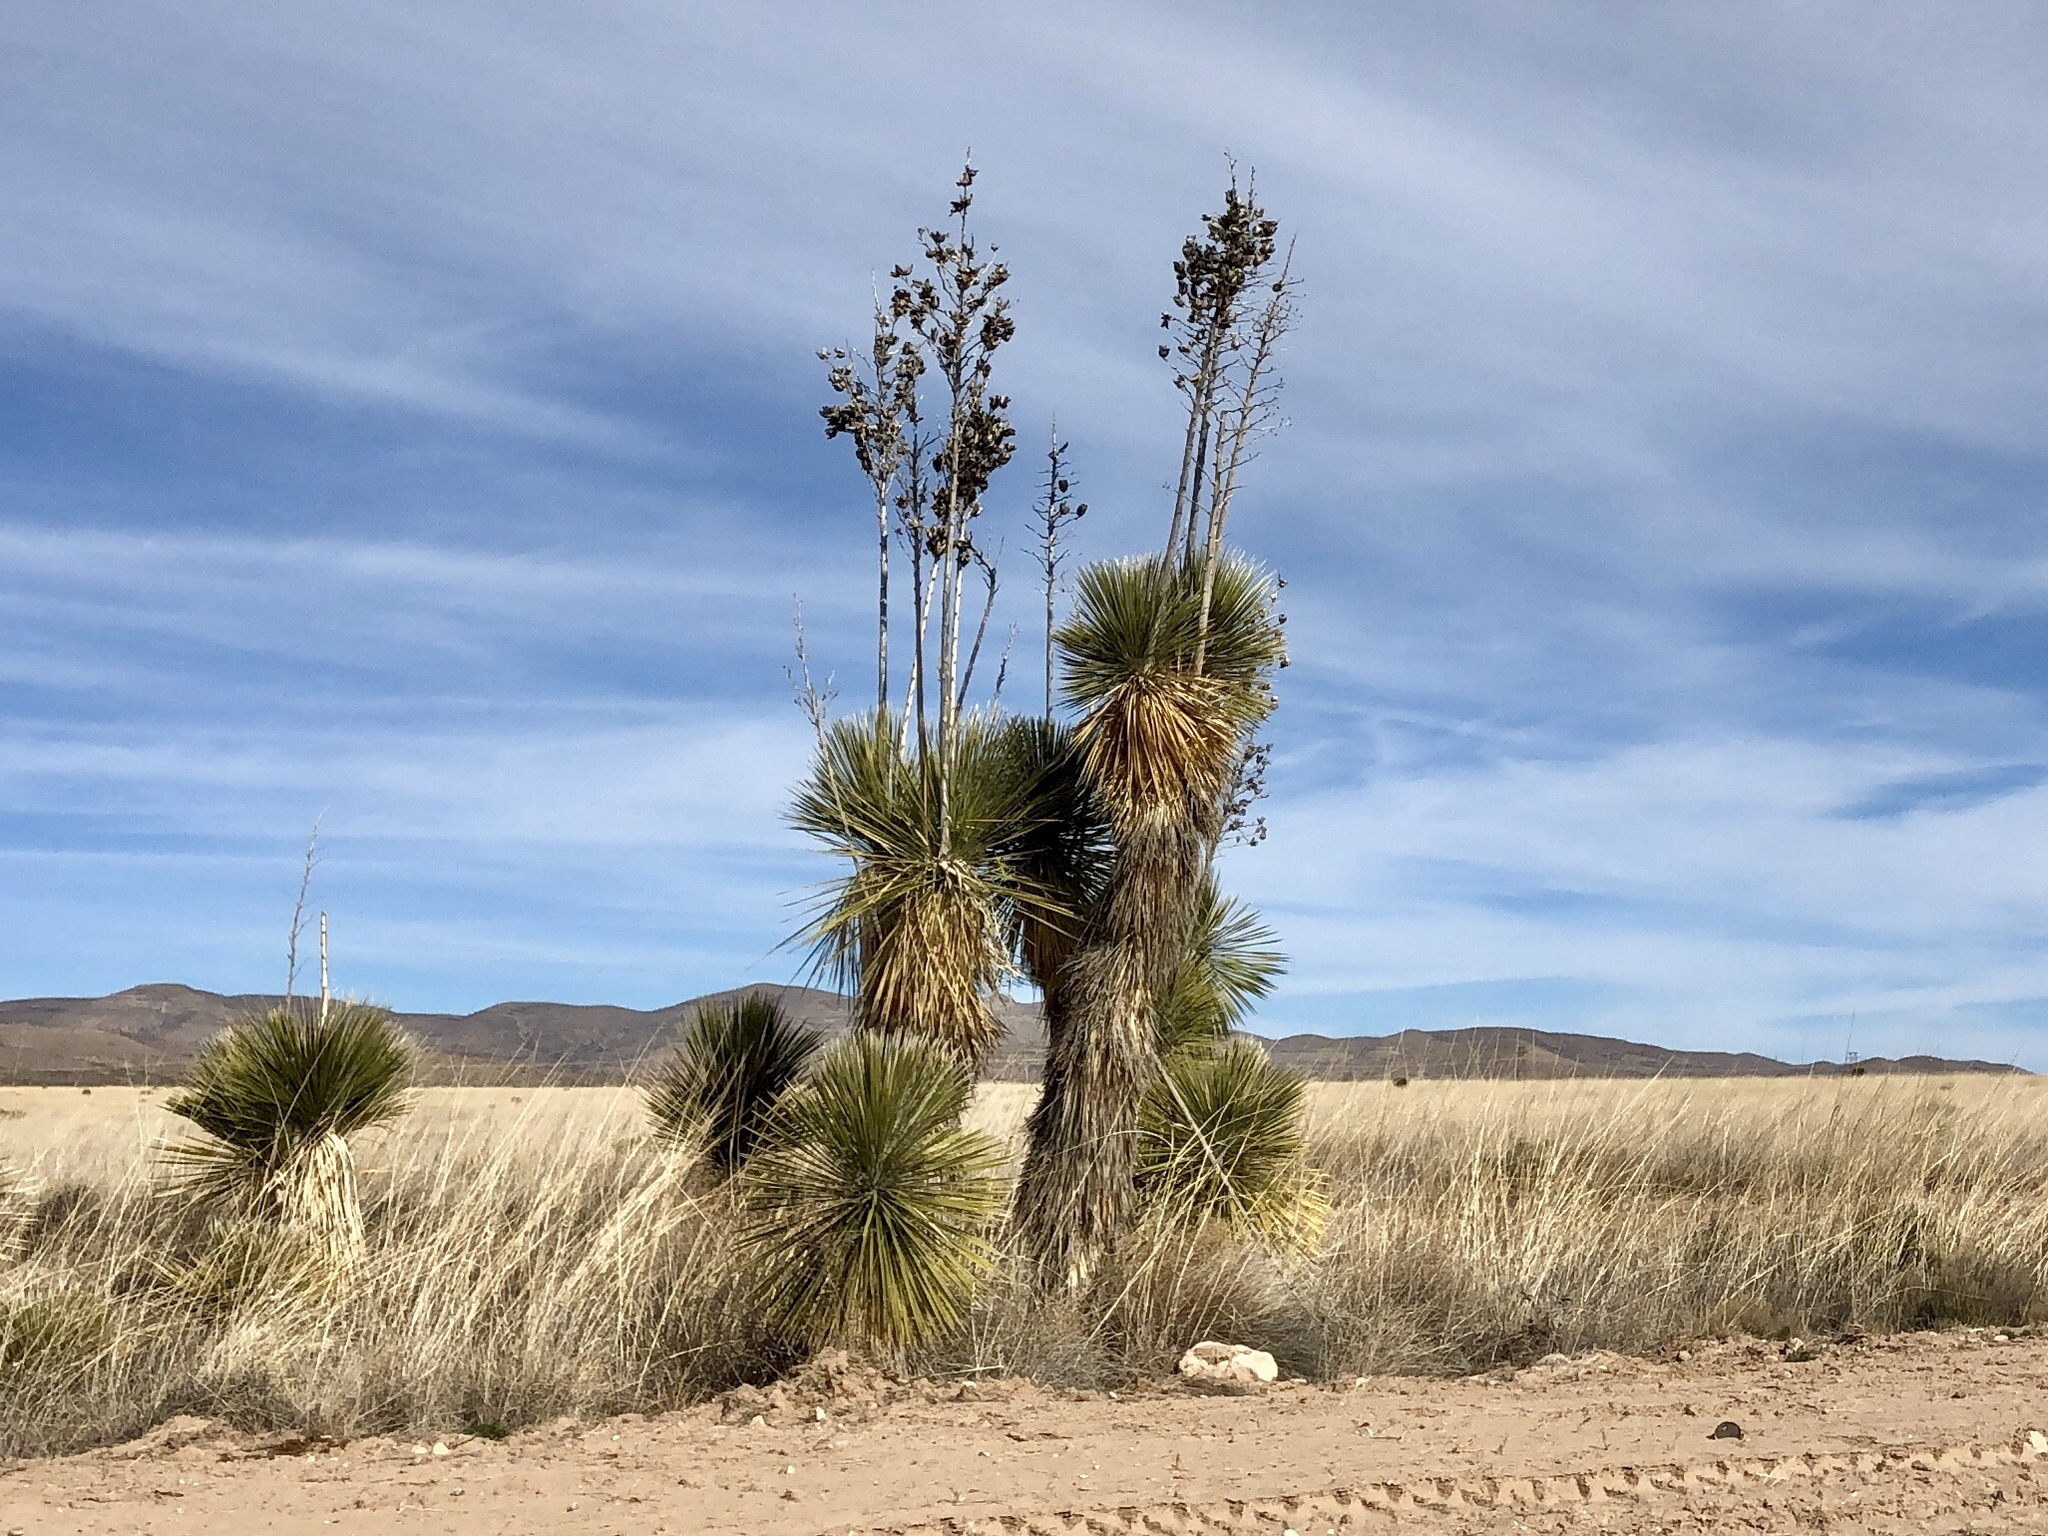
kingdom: Plantae
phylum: Tracheophyta
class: Liliopsida
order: Asparagales
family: Asparagaceae
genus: Yucca
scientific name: Yucca elata
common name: Palmella
